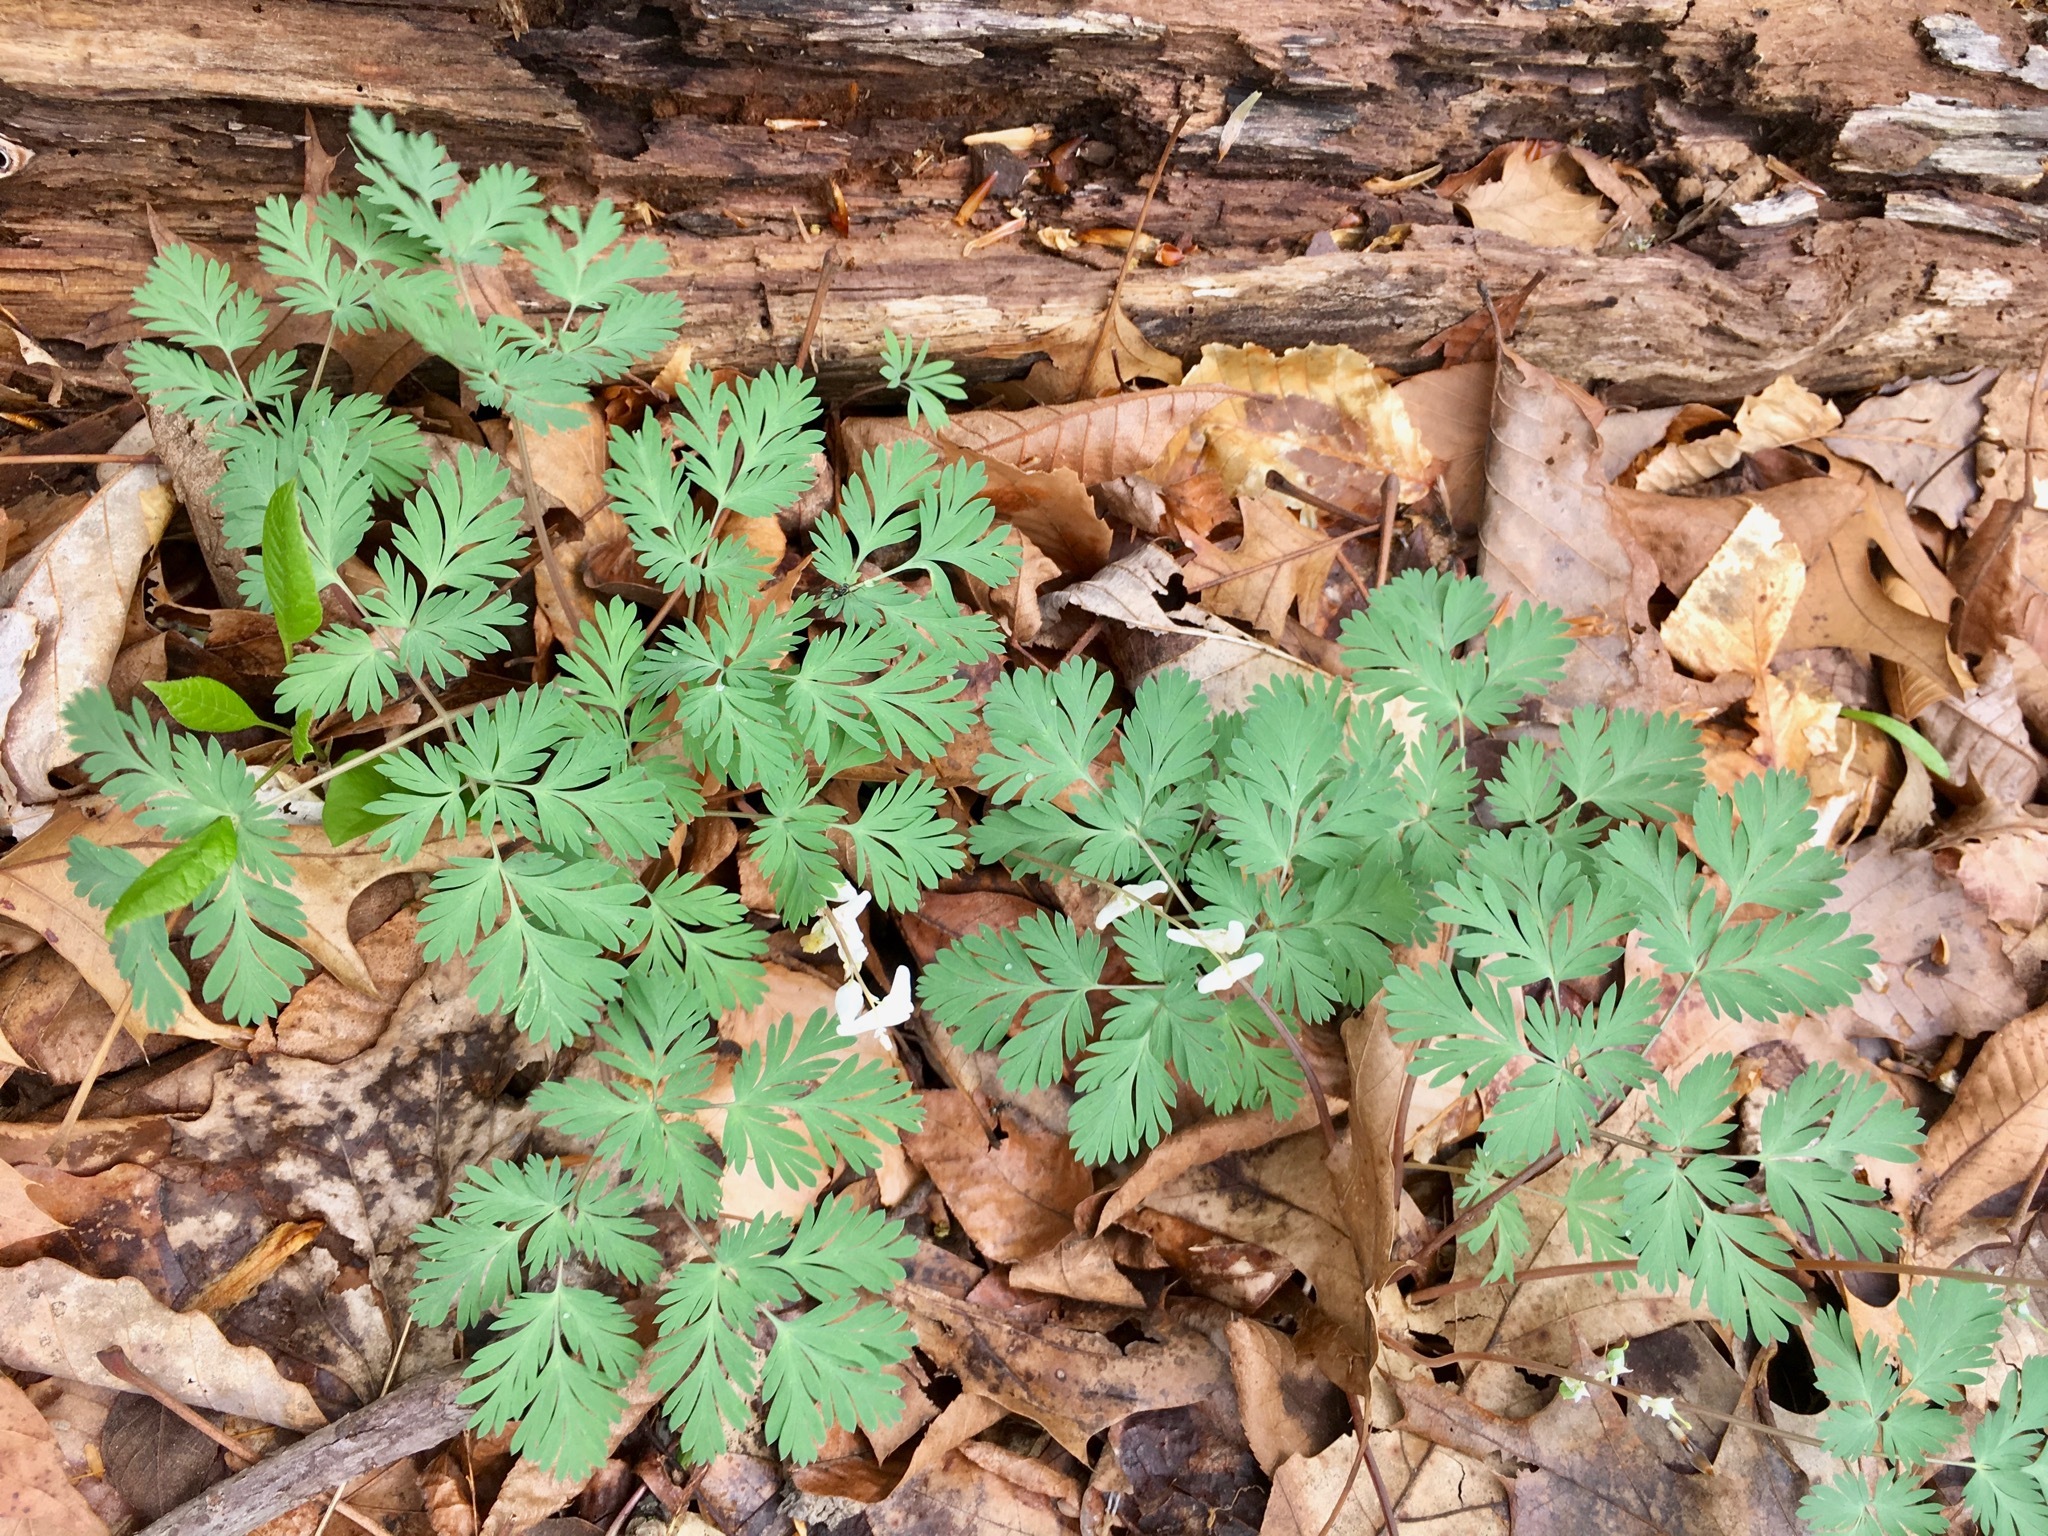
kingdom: Plantae
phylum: Tracheophyta
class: Magnoliopsida
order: Ranunculales
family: Papaveraceae
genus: Dicentra
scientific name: Dicentra cucullaria
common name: Dutchman's breeches
